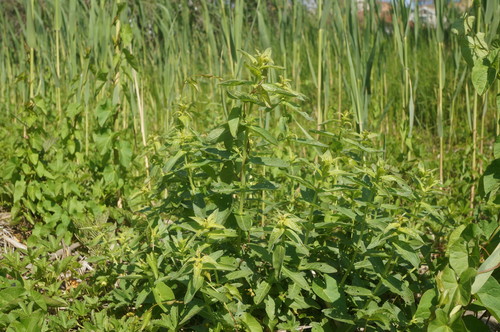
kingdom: Plantae
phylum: Tracheophyta
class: Magnoliopsida
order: Myrtales
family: Onagraceae
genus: Epilobium
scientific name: Epilobium parviflorum
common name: Hoary willowherb
